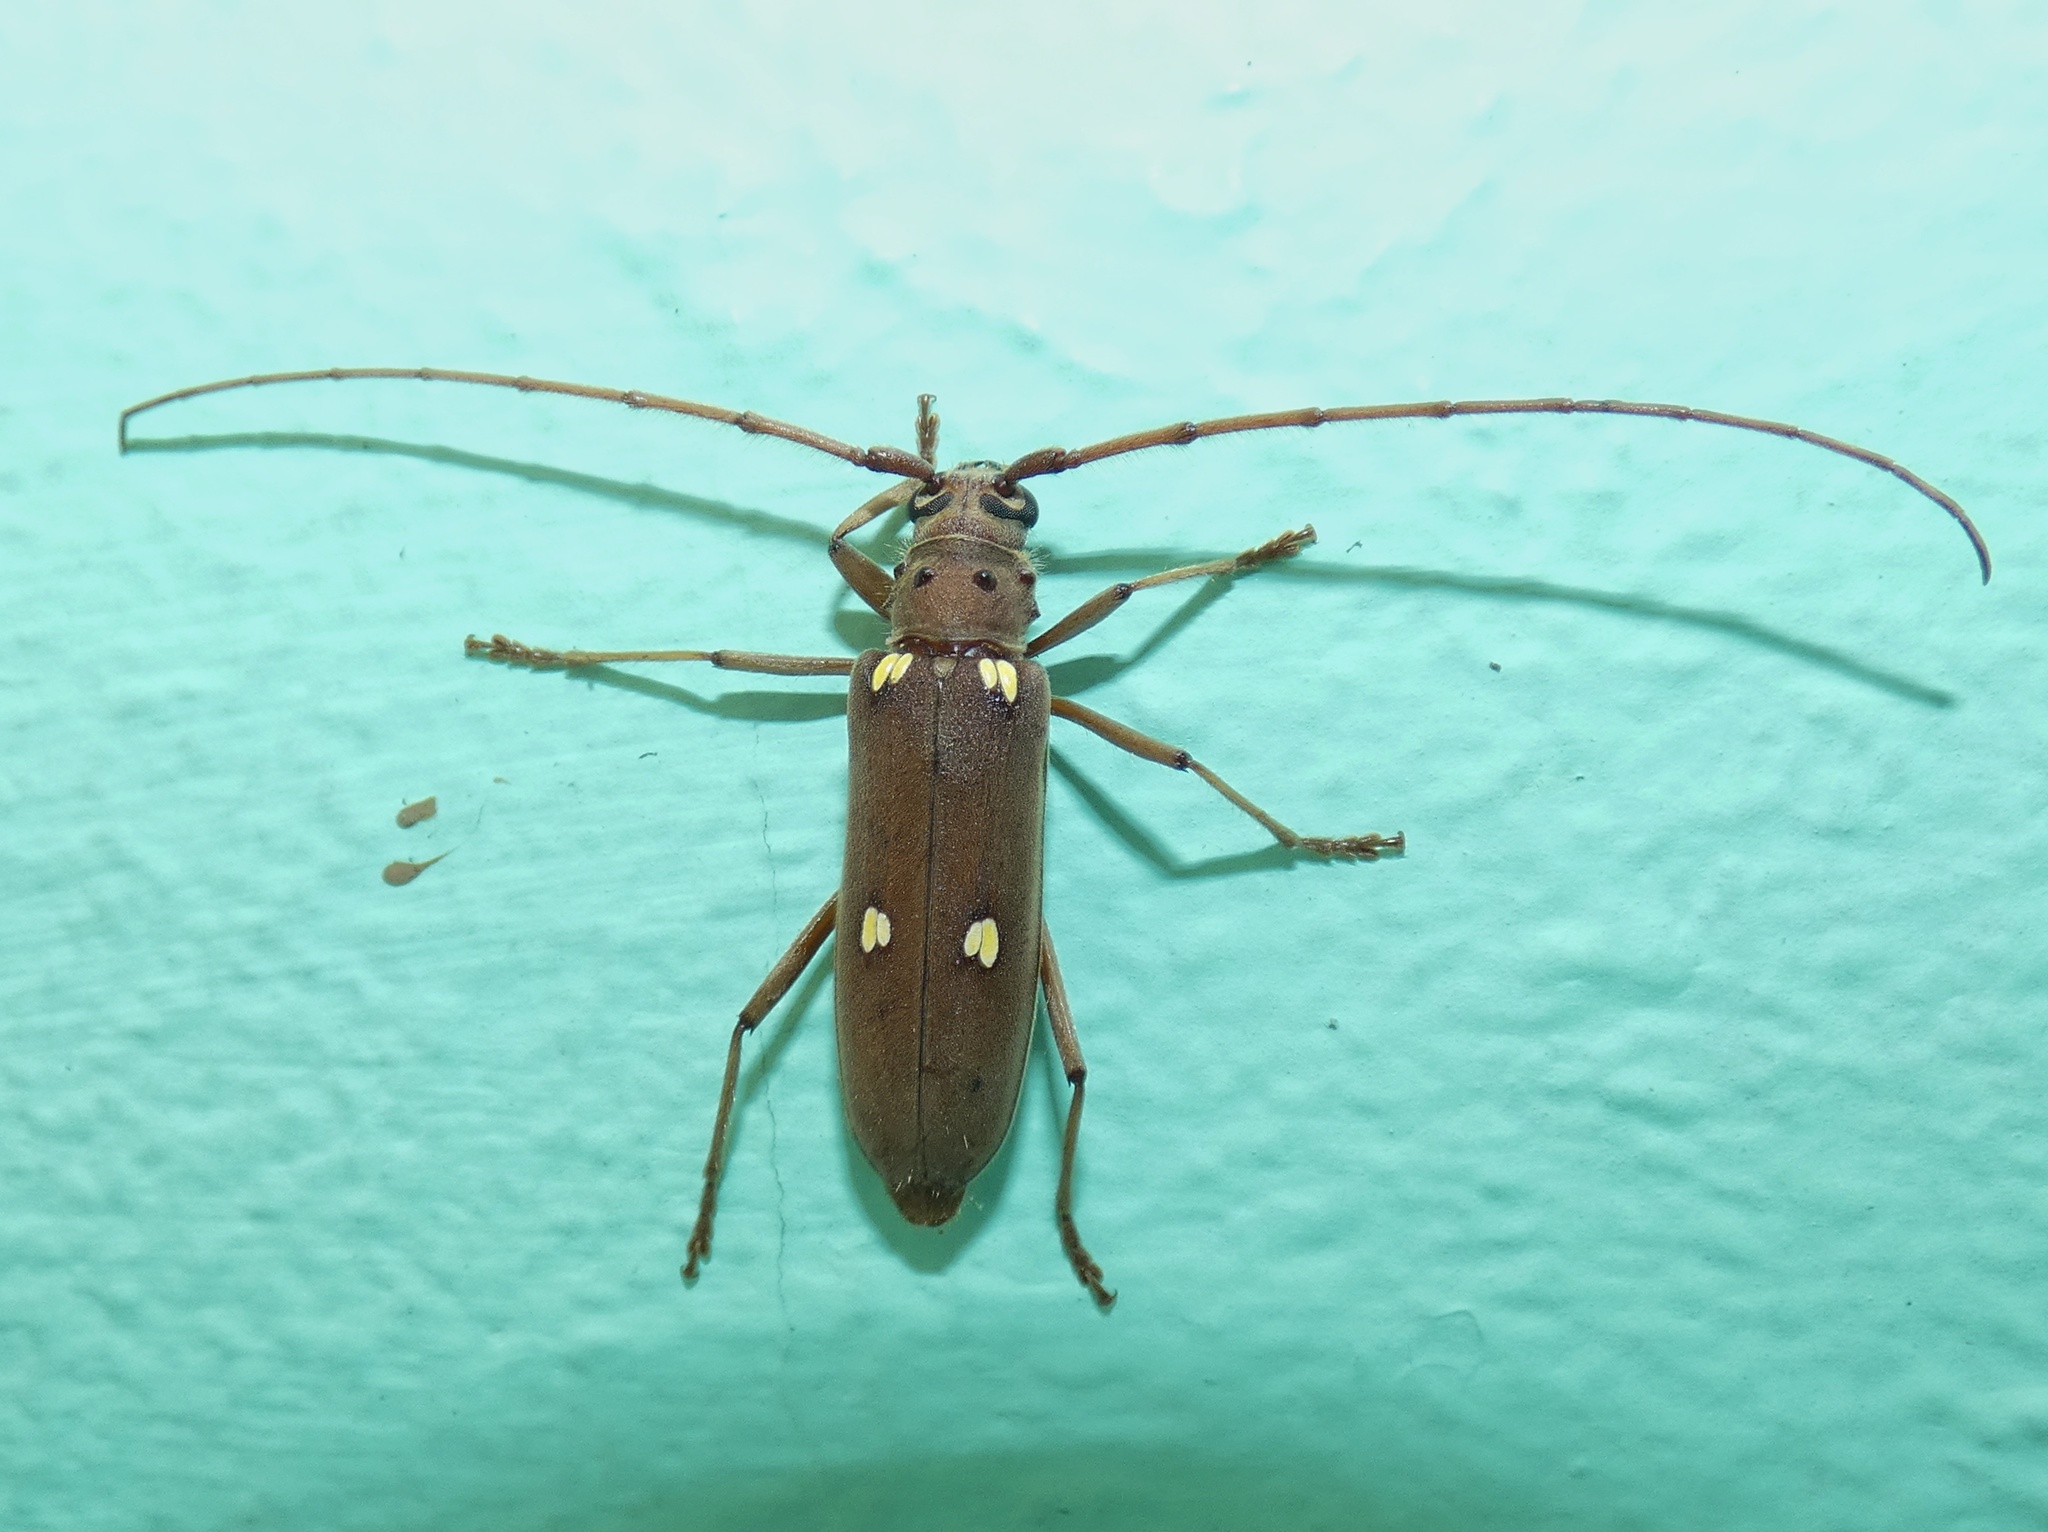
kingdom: Animalia
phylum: Arthropoda
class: Insecta
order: Coleoptera
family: Cerambycidae
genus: Pantomallus
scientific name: Pantomallus fuligineus
